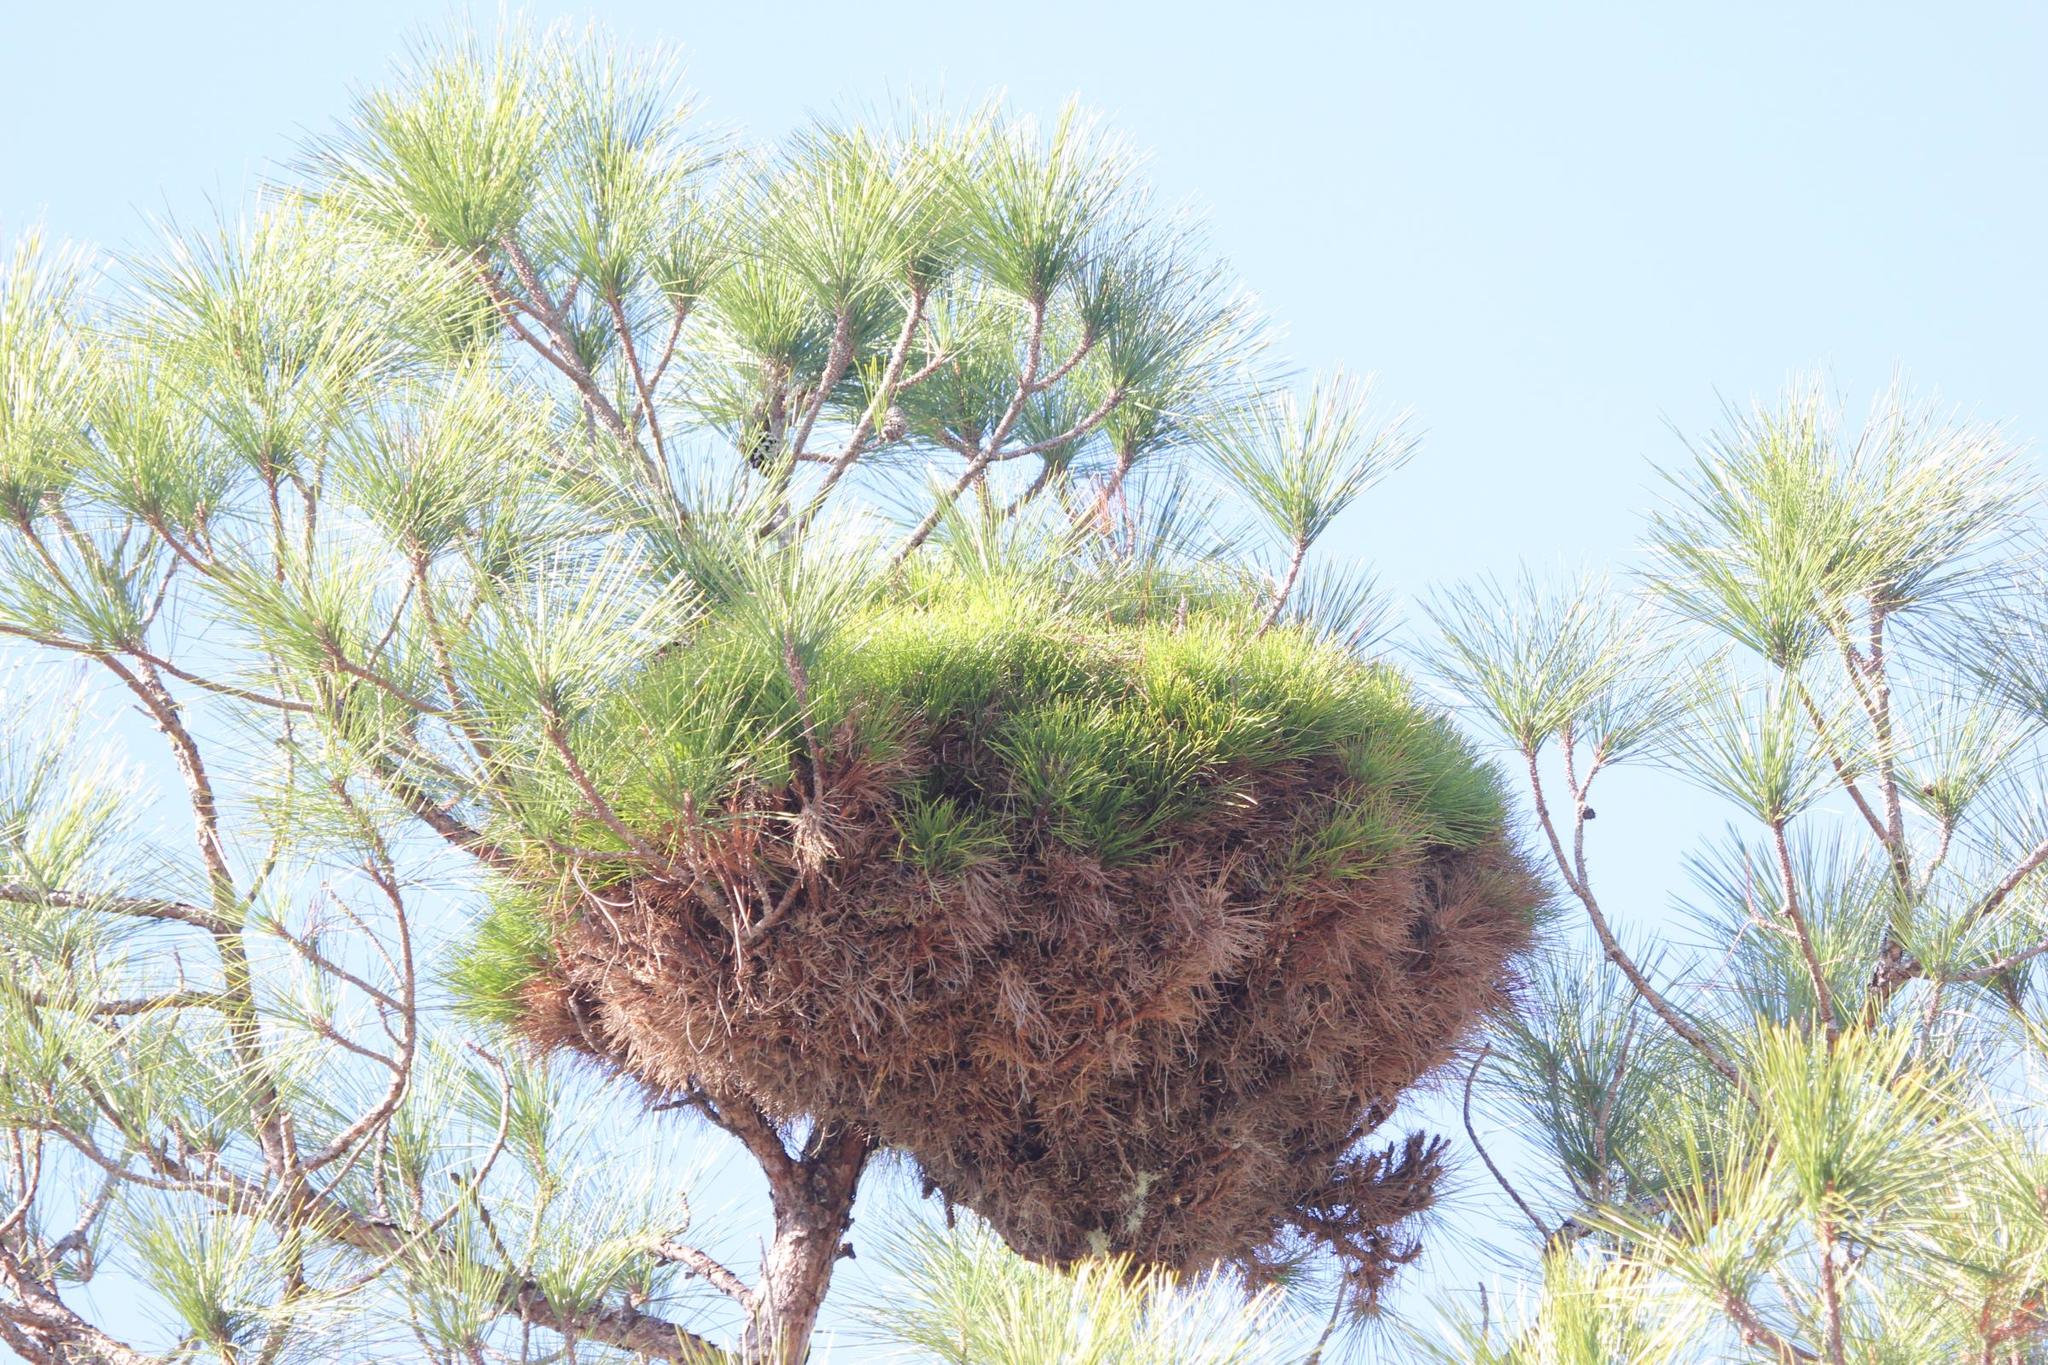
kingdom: Plantae
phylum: Tracheophyta
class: Pinopsida
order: Pinales
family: Pinaceae
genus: Pinus
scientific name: Pinus palustris
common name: Longleaf pine
